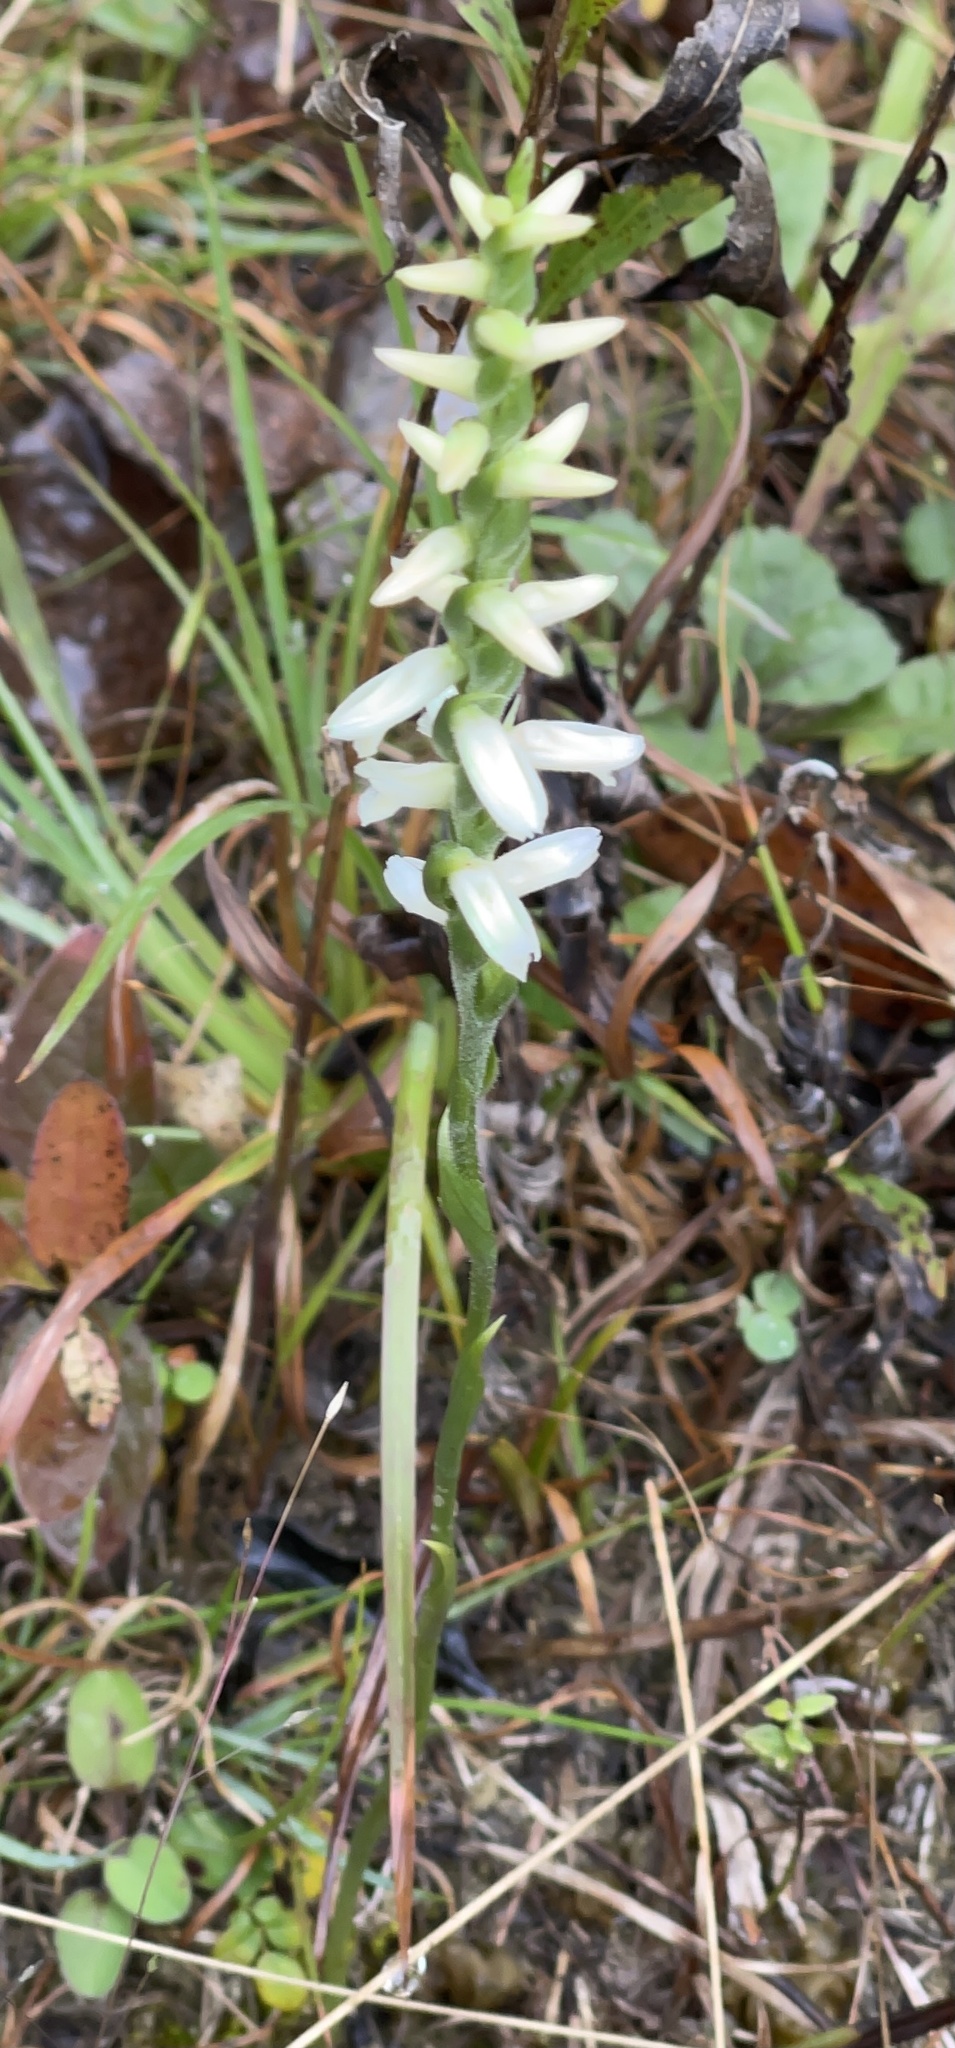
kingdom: Plantae
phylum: Tracheophyta
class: Liliopsida
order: Asparagales
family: Orchidaceae
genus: Spiranthes
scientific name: Spiranthes magnicamporum
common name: Great plains ladies'-tresses
